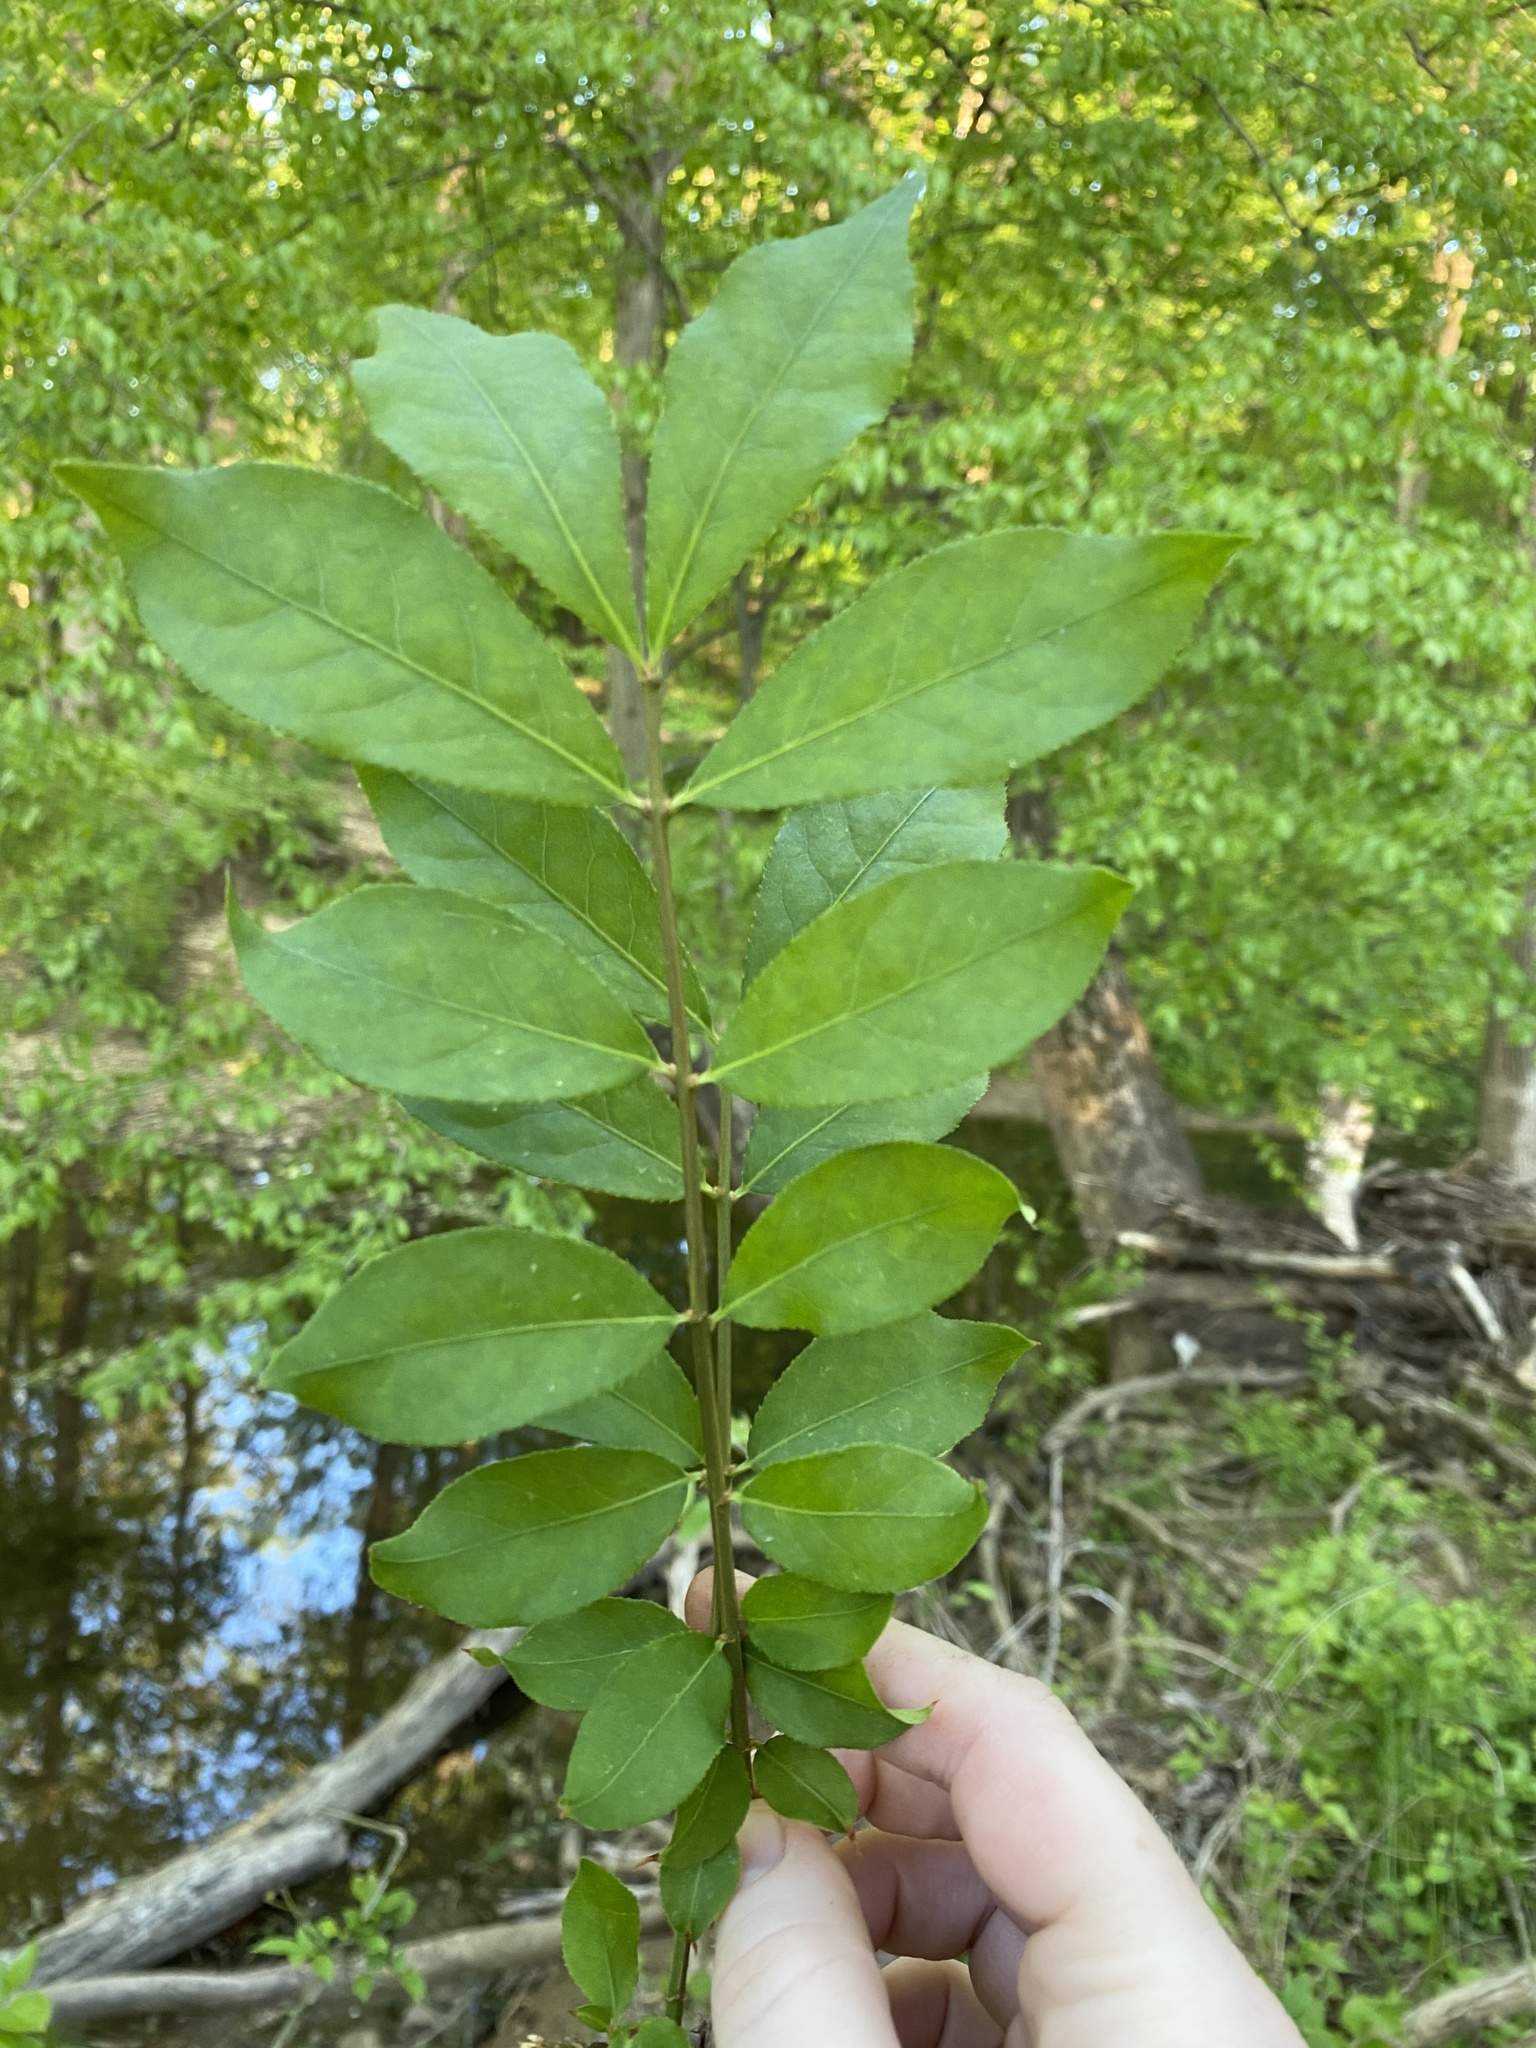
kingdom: Plantae
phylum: Tracheophyta
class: Magnoliopsida
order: Celastrales
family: Celastraceae
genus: Euonymus
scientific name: Euonymus alatus
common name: Winged euonymus
